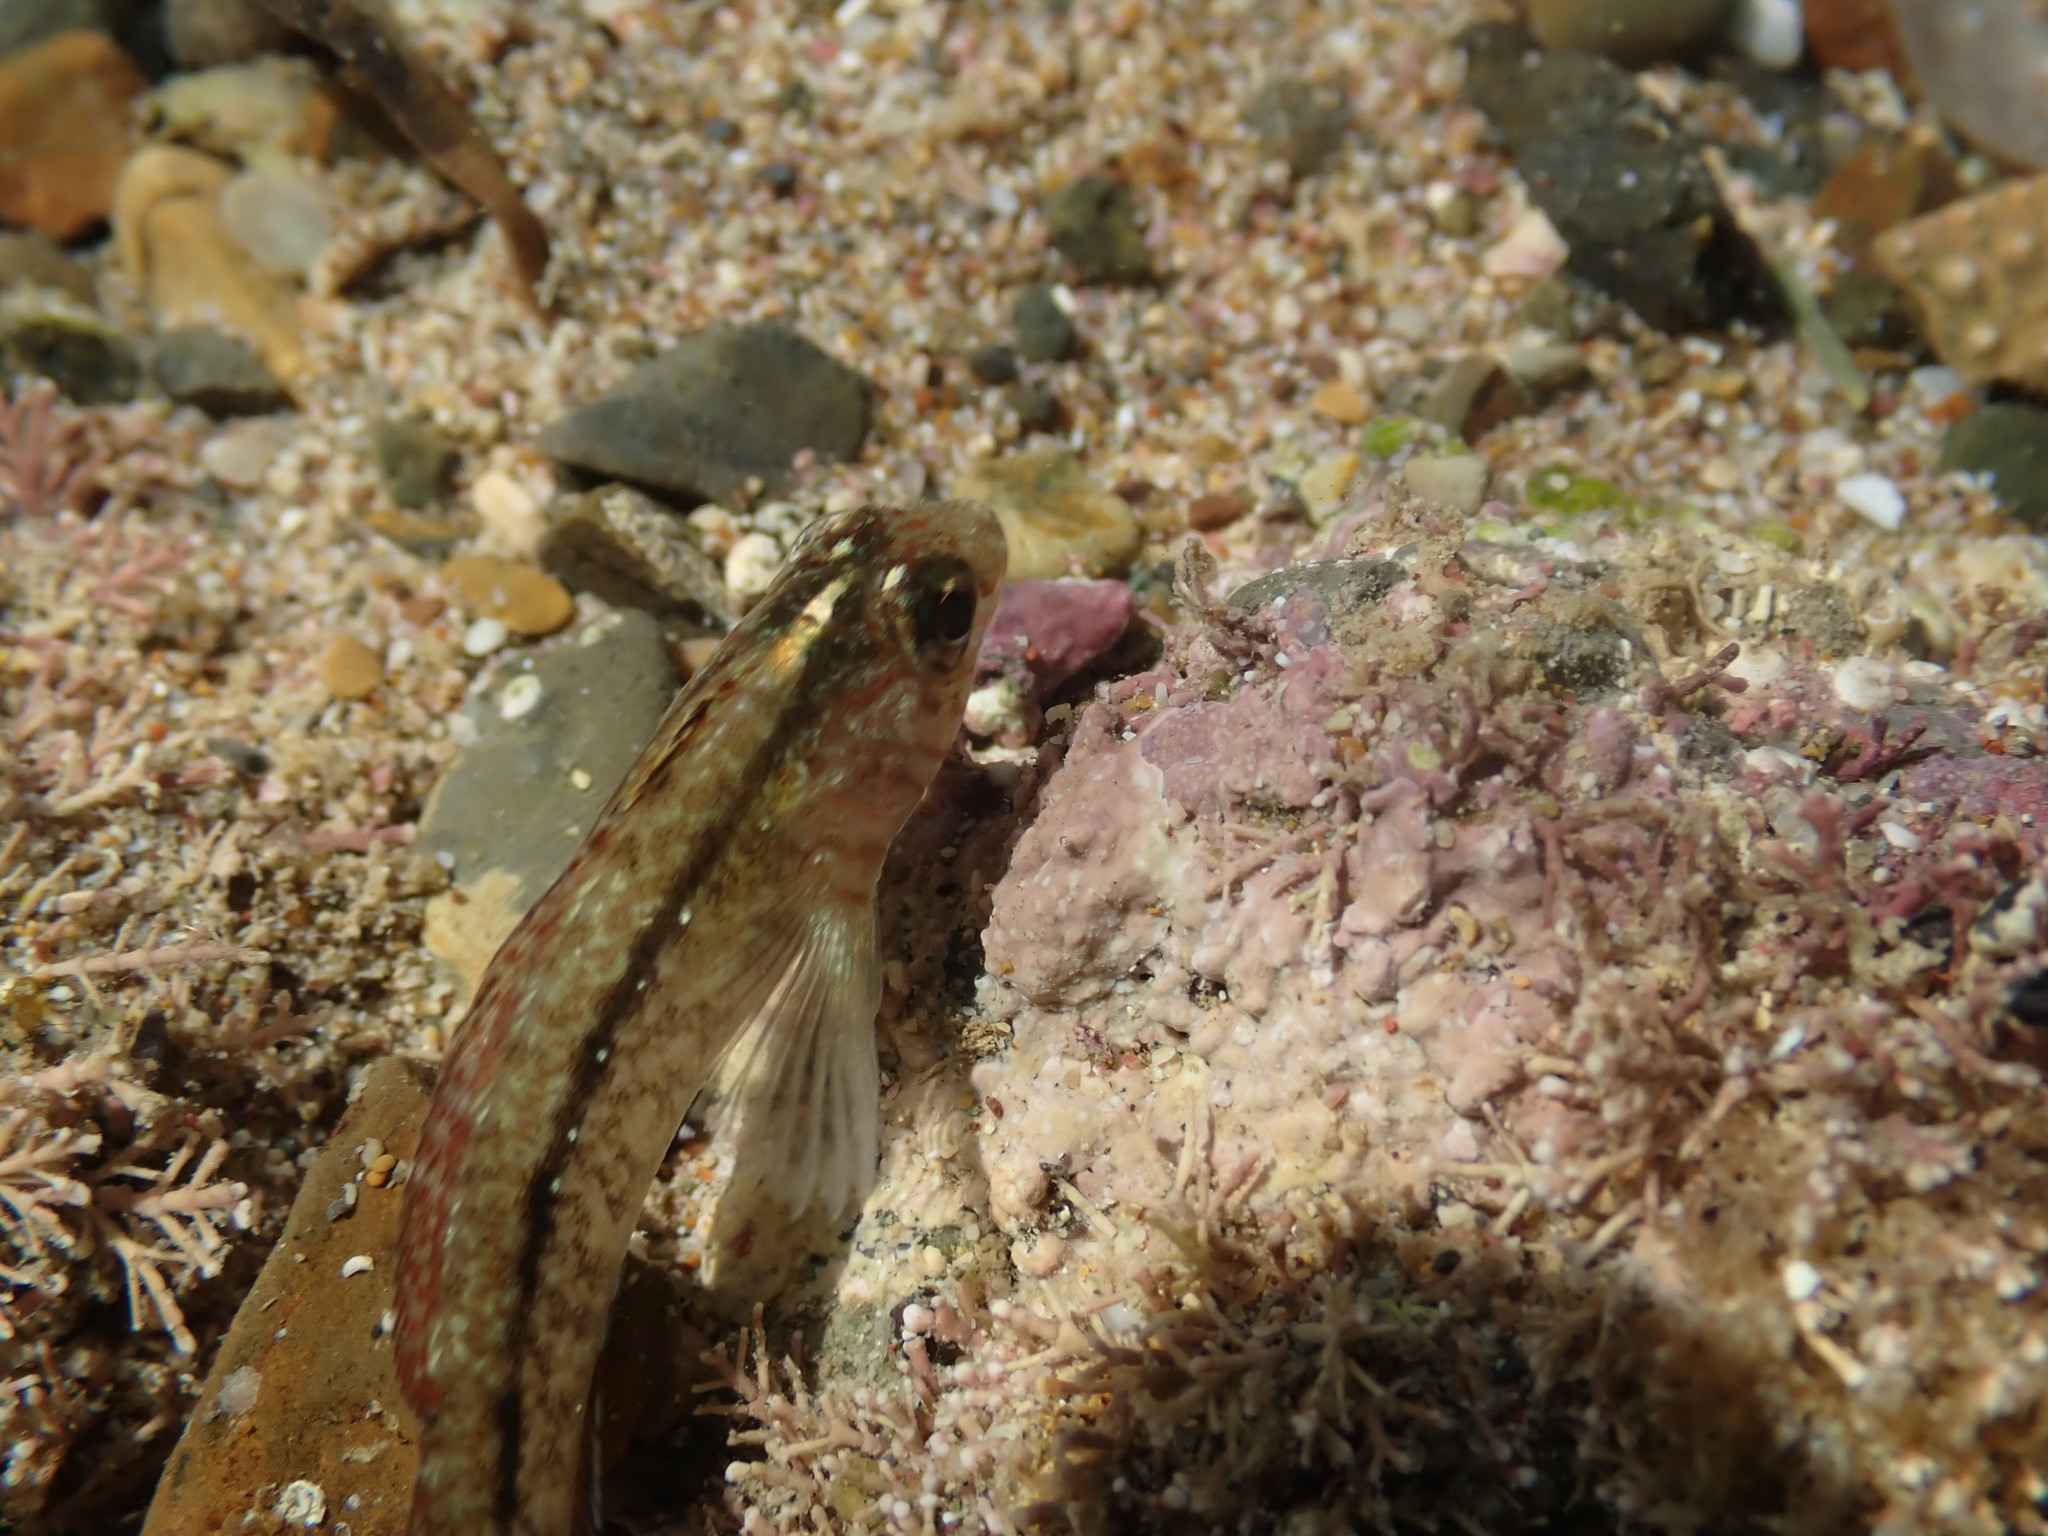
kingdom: Animalia
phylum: Chordata
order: Perciformes
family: Tripterygiidae
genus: Forsterygion
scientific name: Forsterygion lapillum
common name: Common triplefin
